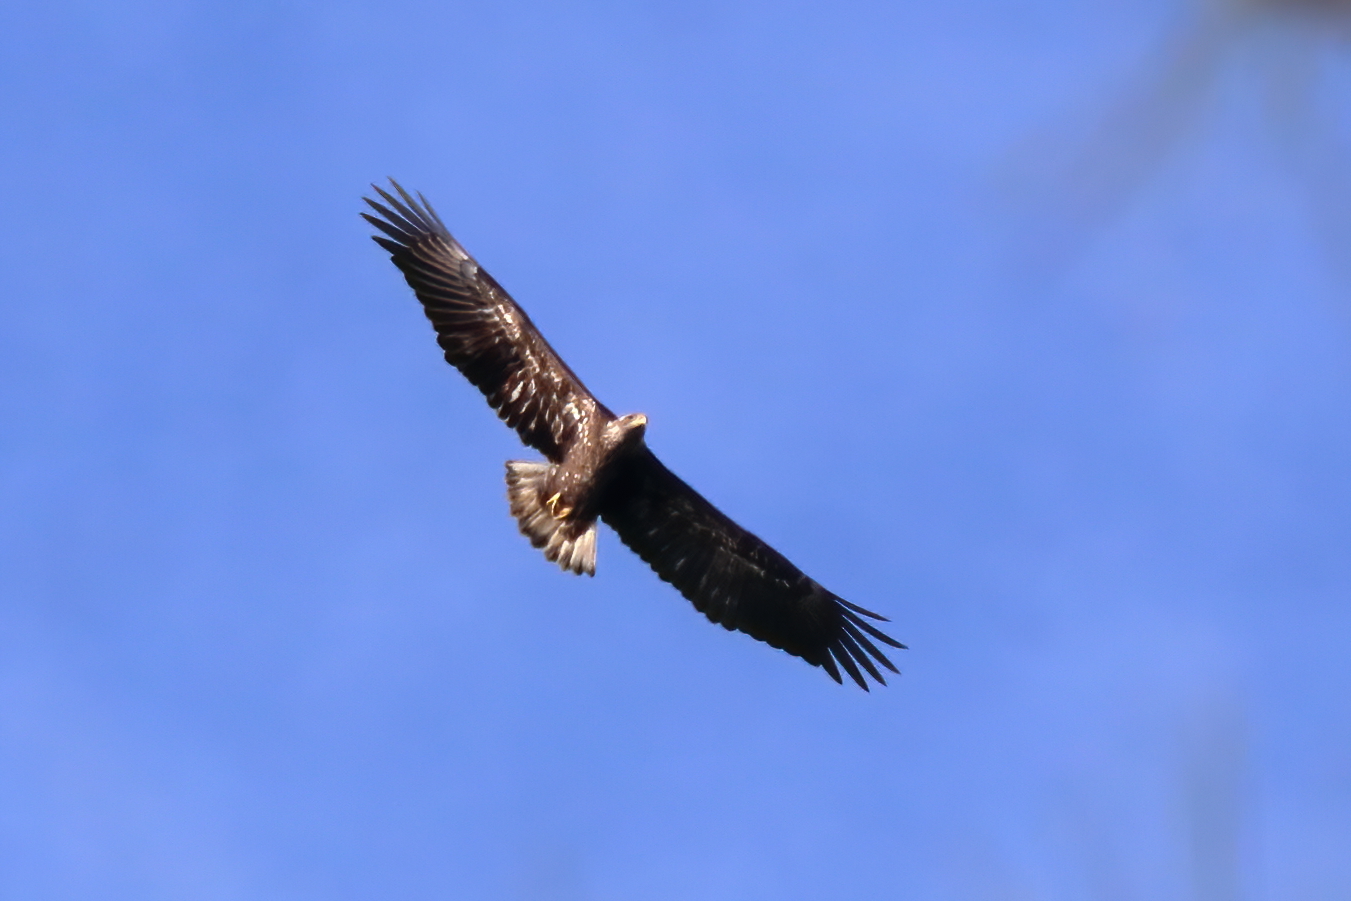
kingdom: Animalia
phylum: Chordata
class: Aves
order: Accipitriformes
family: Accipitridae
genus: Haliaeetus
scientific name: Haliaeetus leucocephalus
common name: Bald eagle
